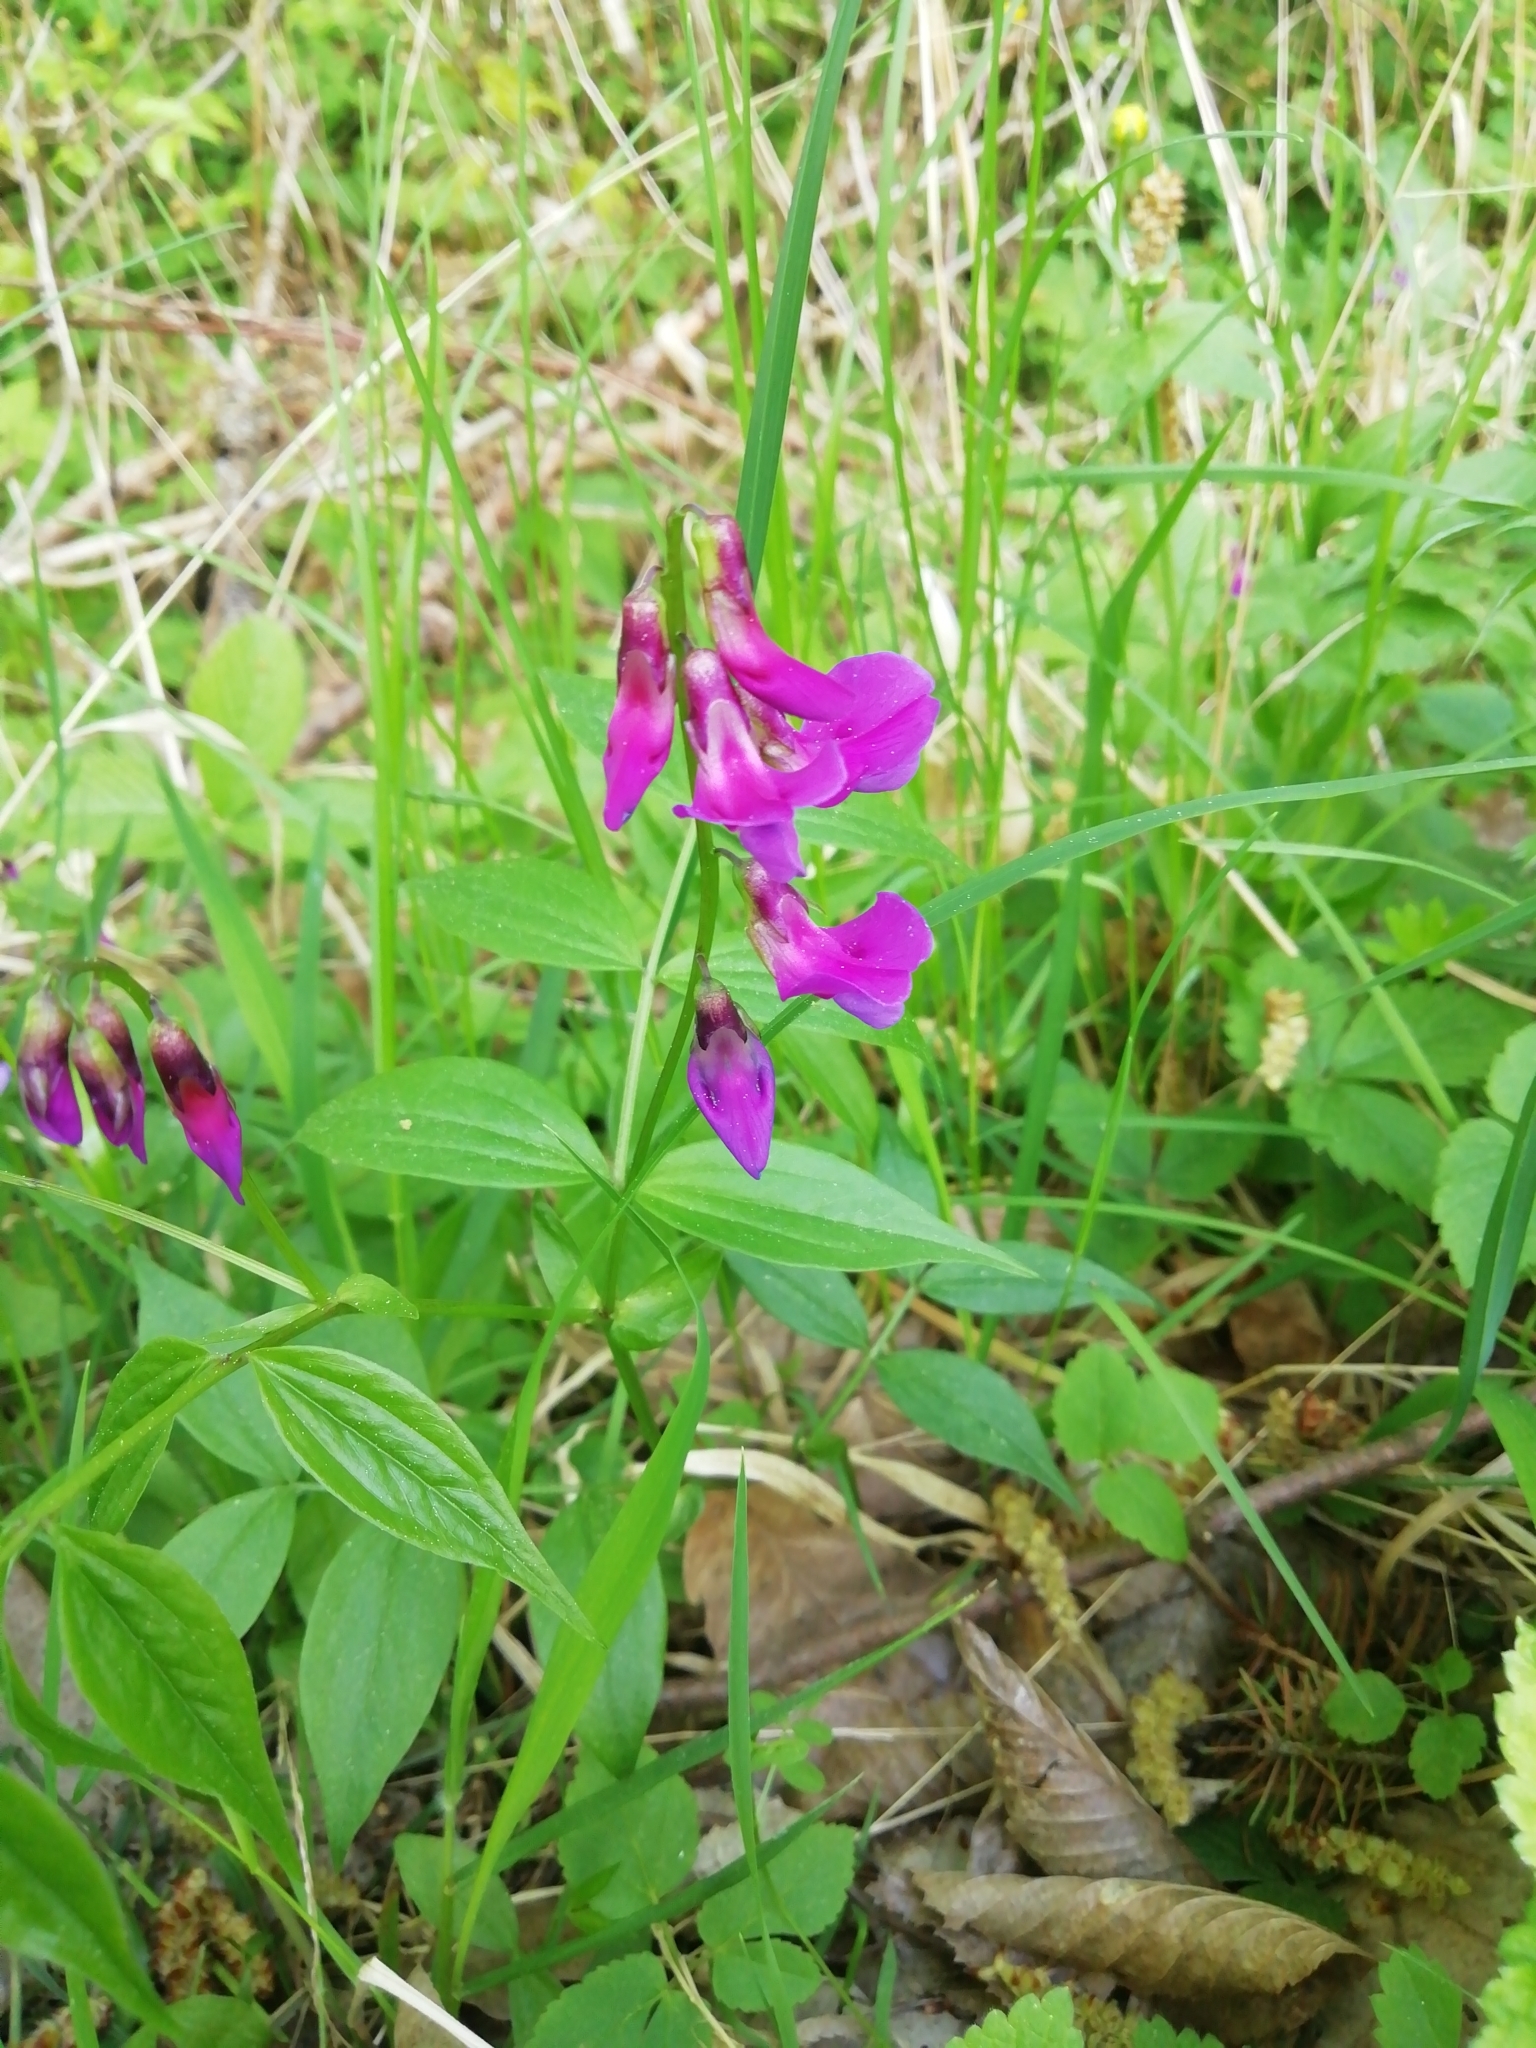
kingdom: Plantae
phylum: Tracheophyta
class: Magnoliopsida
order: Fabales
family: Fabaceae
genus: Lathyrus
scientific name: Lathyrus vernus
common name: Spring pea
